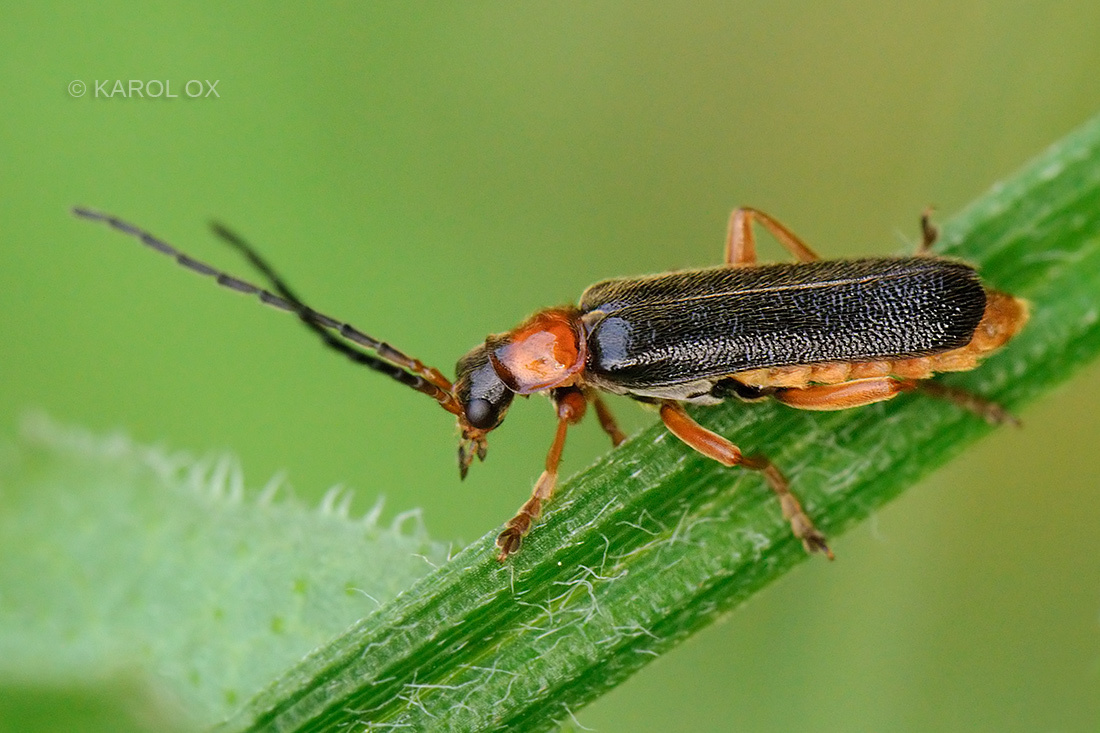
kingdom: Animalia
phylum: Arthropoda
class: Insecta
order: Coleoptera
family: Cantharidae
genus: Cantharis
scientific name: Cantharis flavilabris
